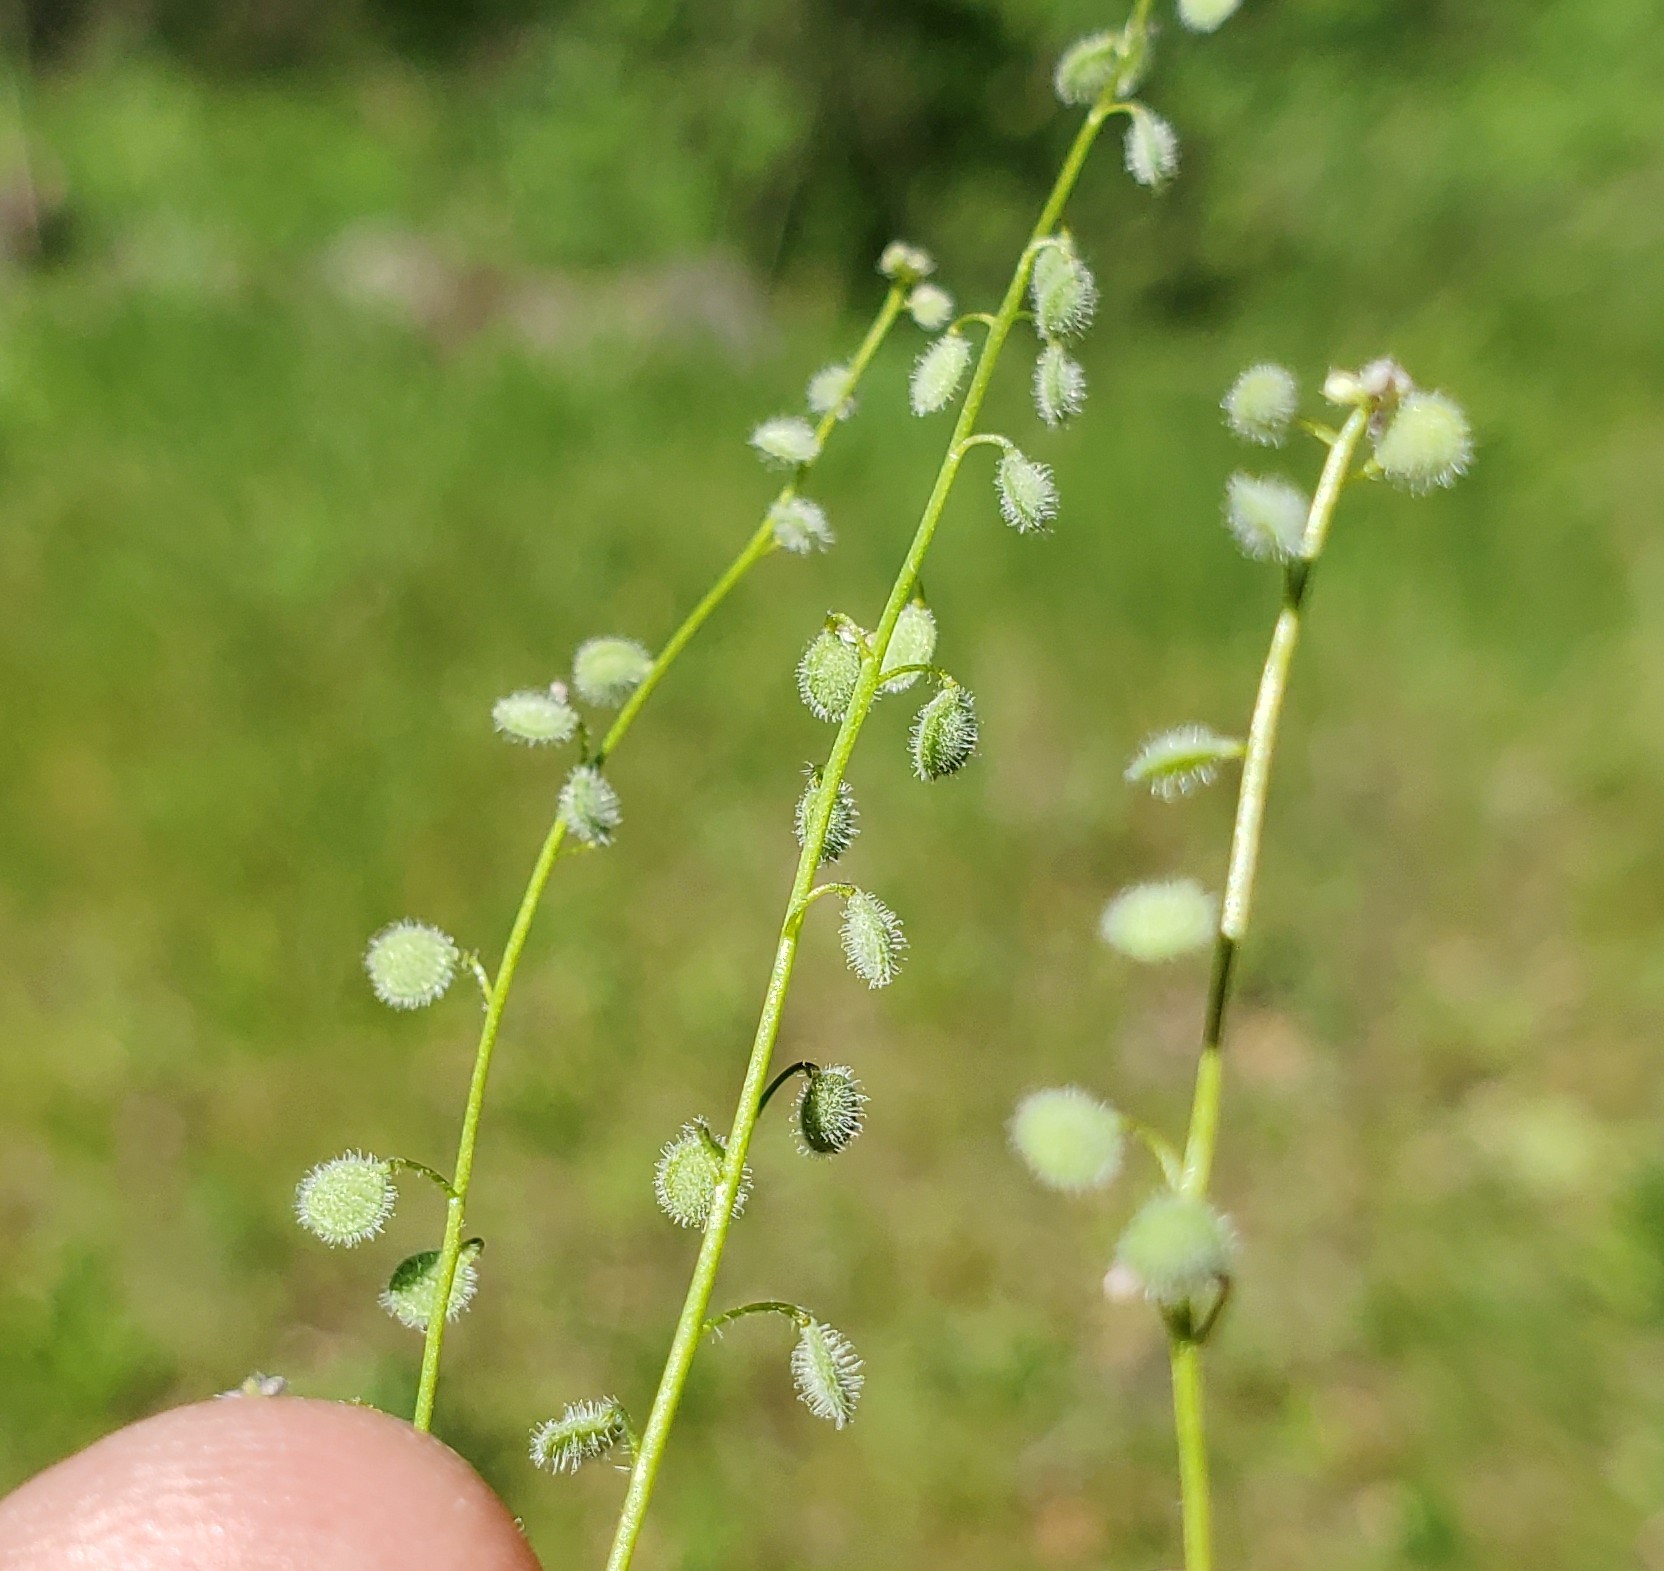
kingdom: Plantae
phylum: Tracheophyta
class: Magnoliopsida
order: Brassicales
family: Brassicaceae
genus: Athysanus
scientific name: Athysanus pusillus
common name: Common sandweed
